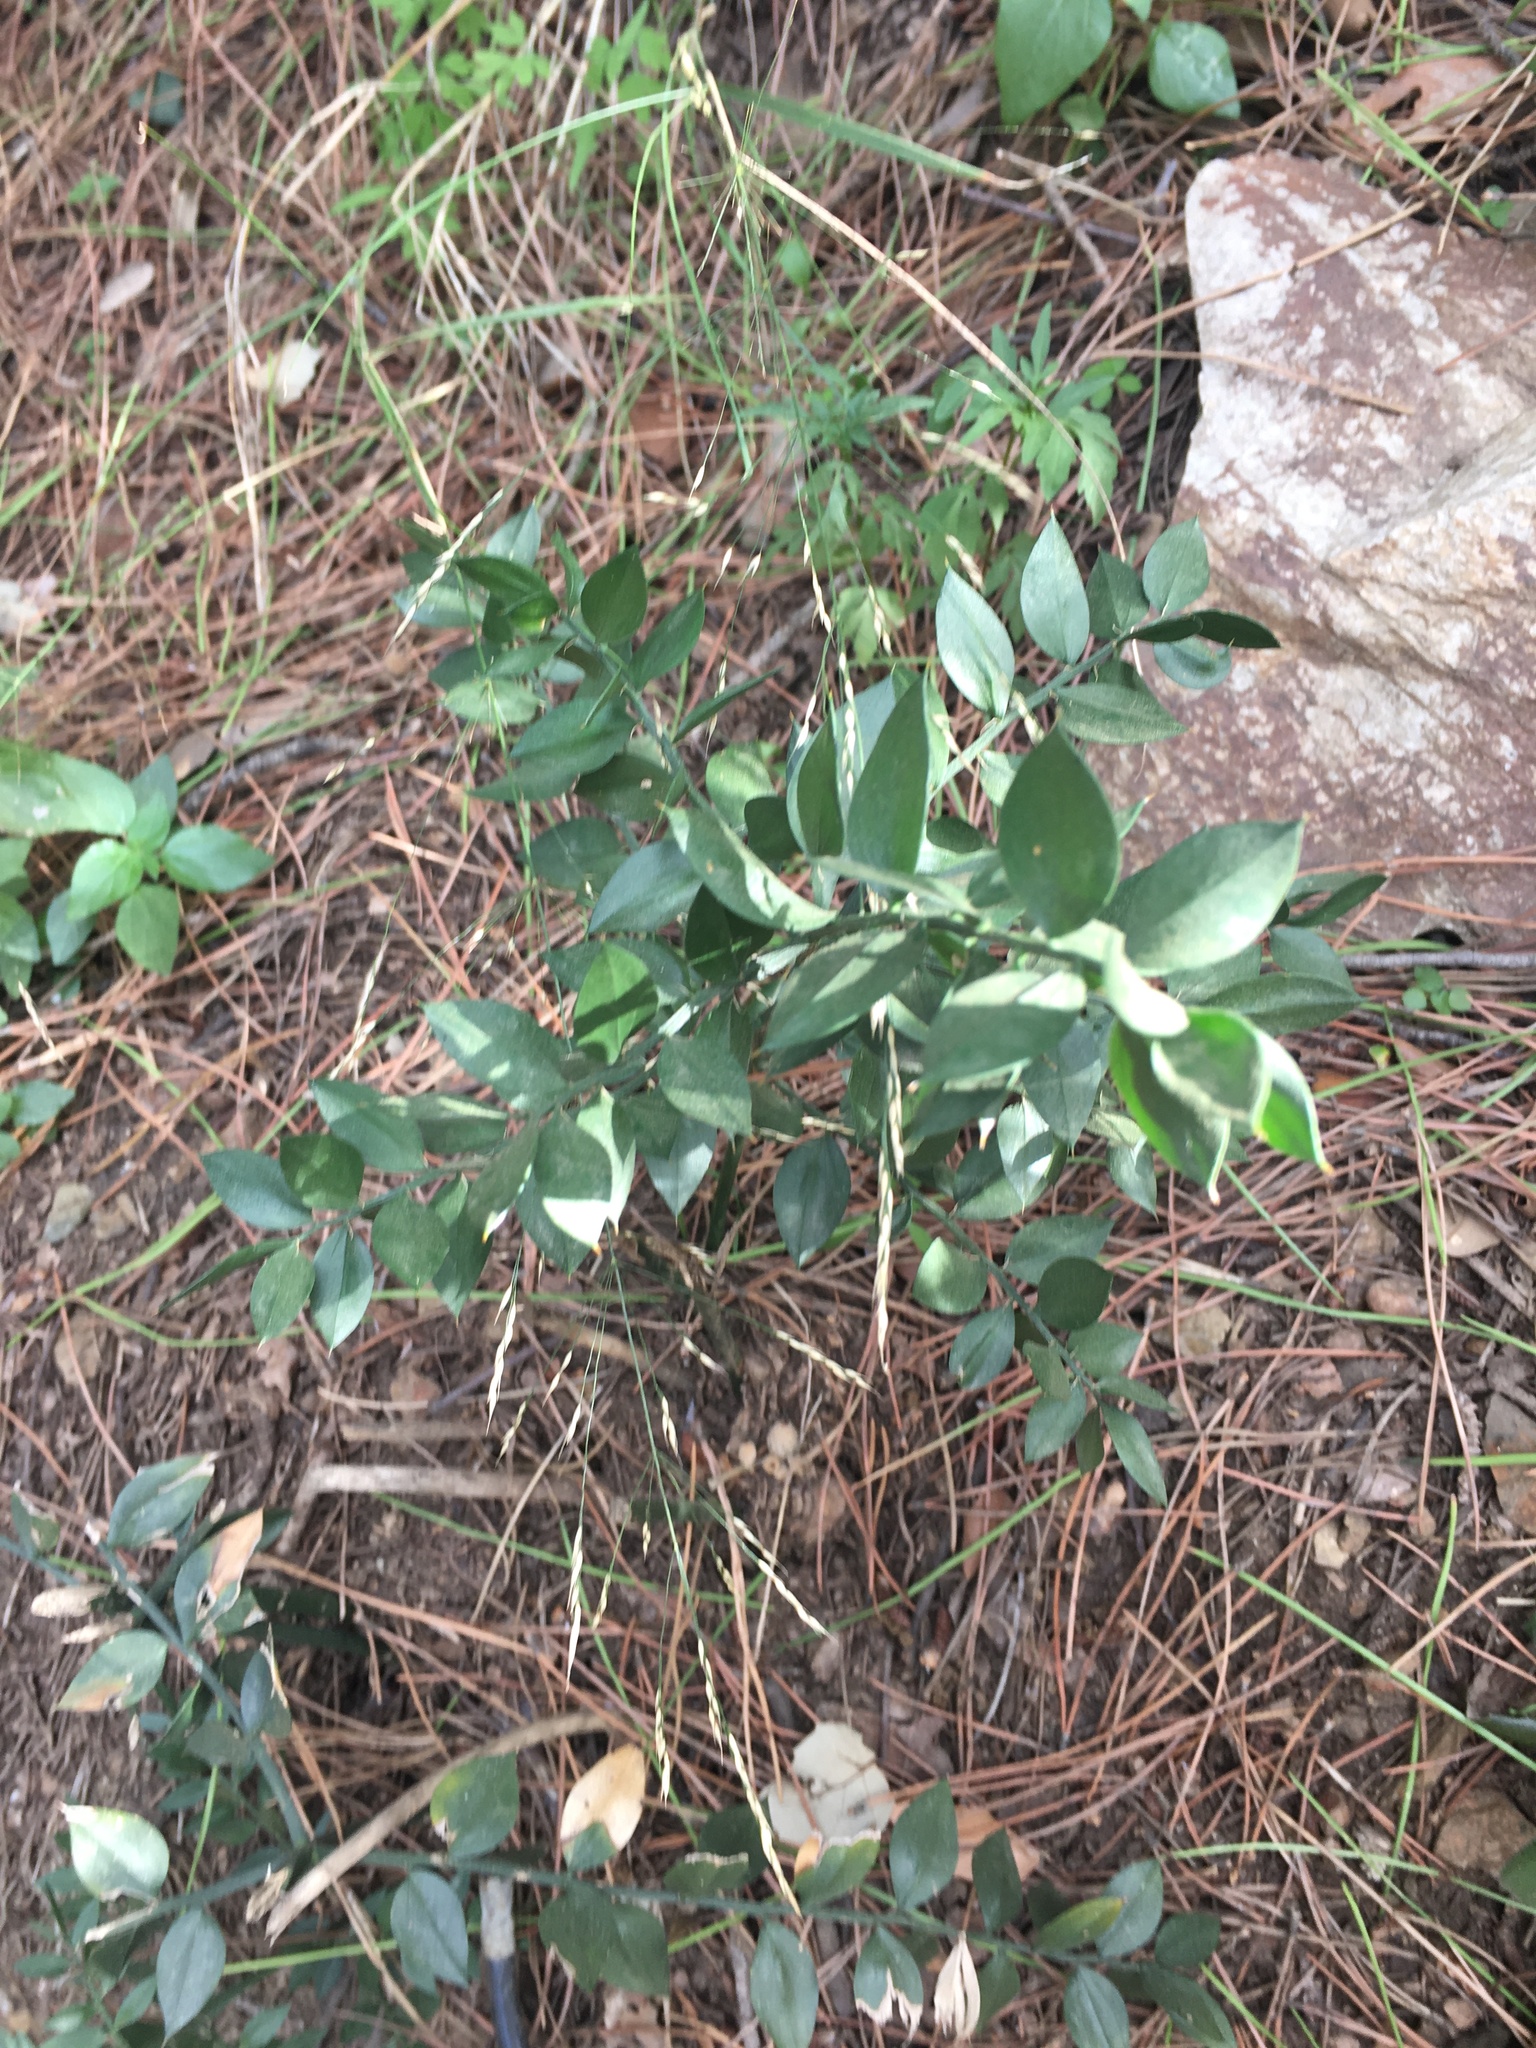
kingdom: Plantae
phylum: Tracheophyta
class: Liliopsida
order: Asparagales
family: Asparagaceae
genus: Ruscus
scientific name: Ruscus aculeatus
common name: Butcher's-broom
